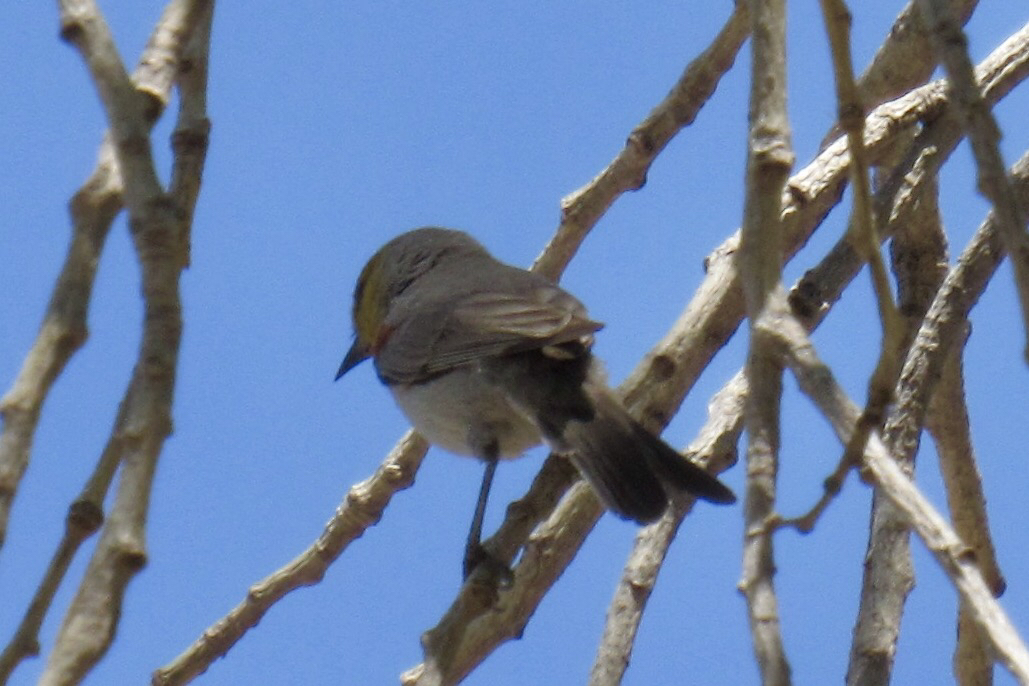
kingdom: Animalia
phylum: Chordata
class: Aves
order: Passeriformes
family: Remizidae
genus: Auriparus
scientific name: Auriparus flaviceps
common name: Verdin
